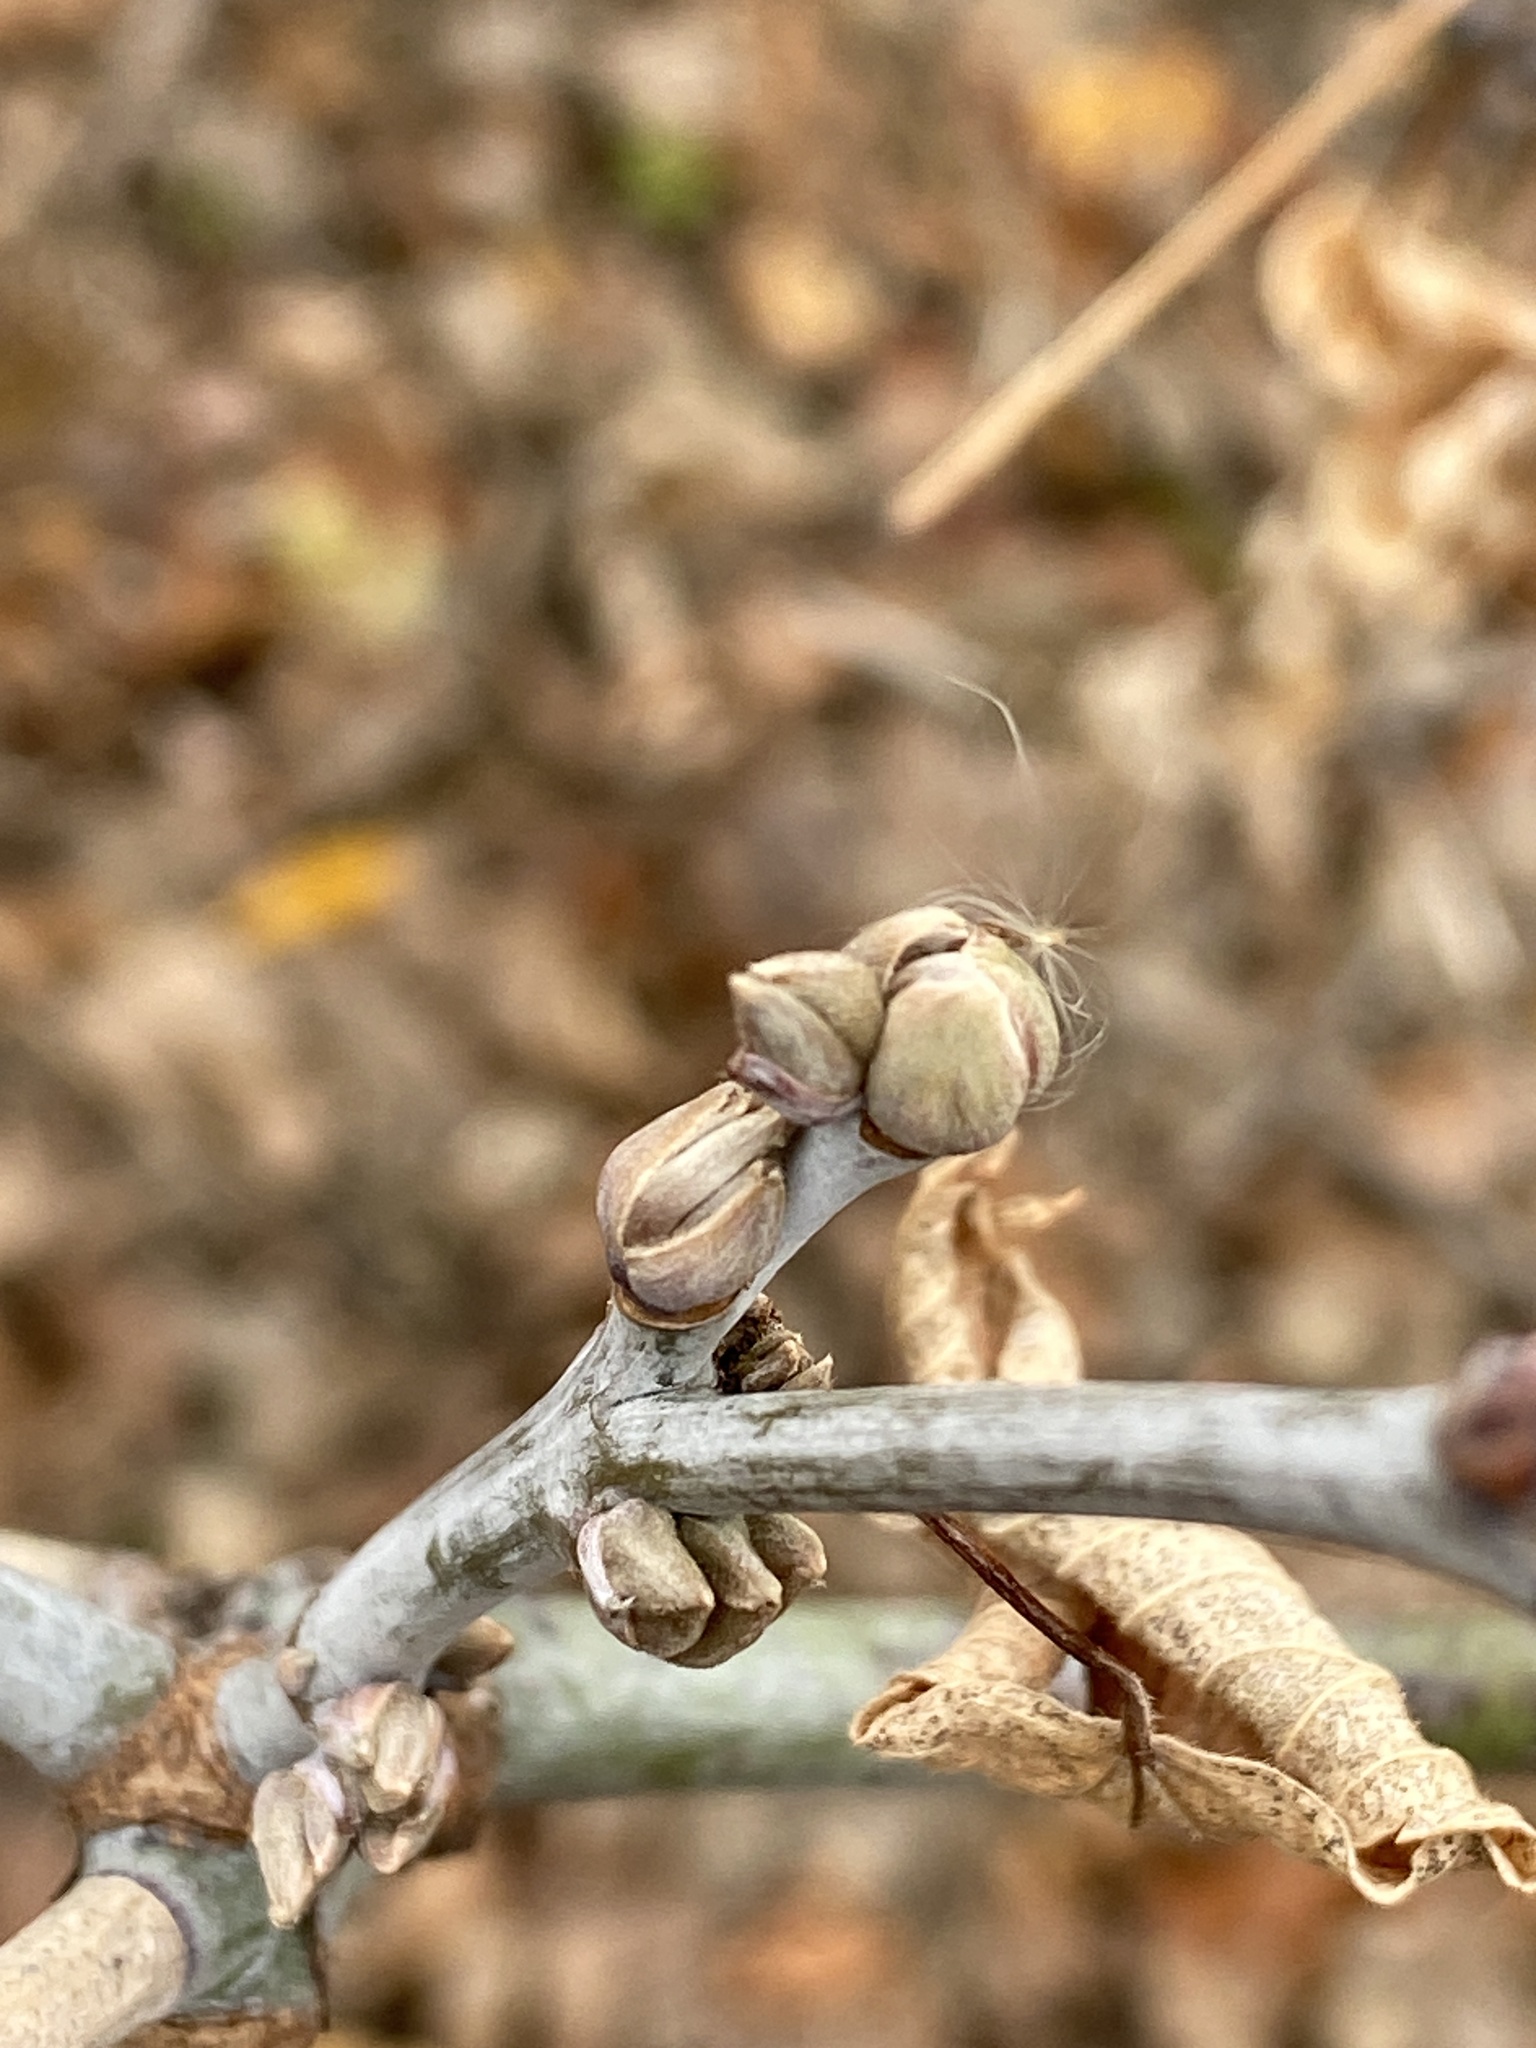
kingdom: Plantae
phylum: Tracheophyta
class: Magnoliopsida
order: Sapindales
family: Sapindaceae
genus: Acer
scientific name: Acer negundo
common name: Ashleaf maple
